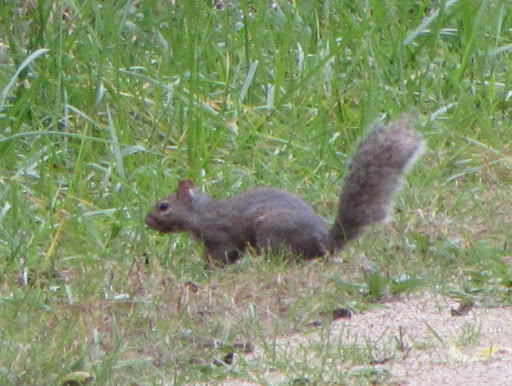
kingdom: Animalia
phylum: Chordata
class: Mammalia
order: Rodentia
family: Sciuridae
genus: Sciurus
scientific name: Sciurus carolinensis
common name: Eastern gray squirrel
